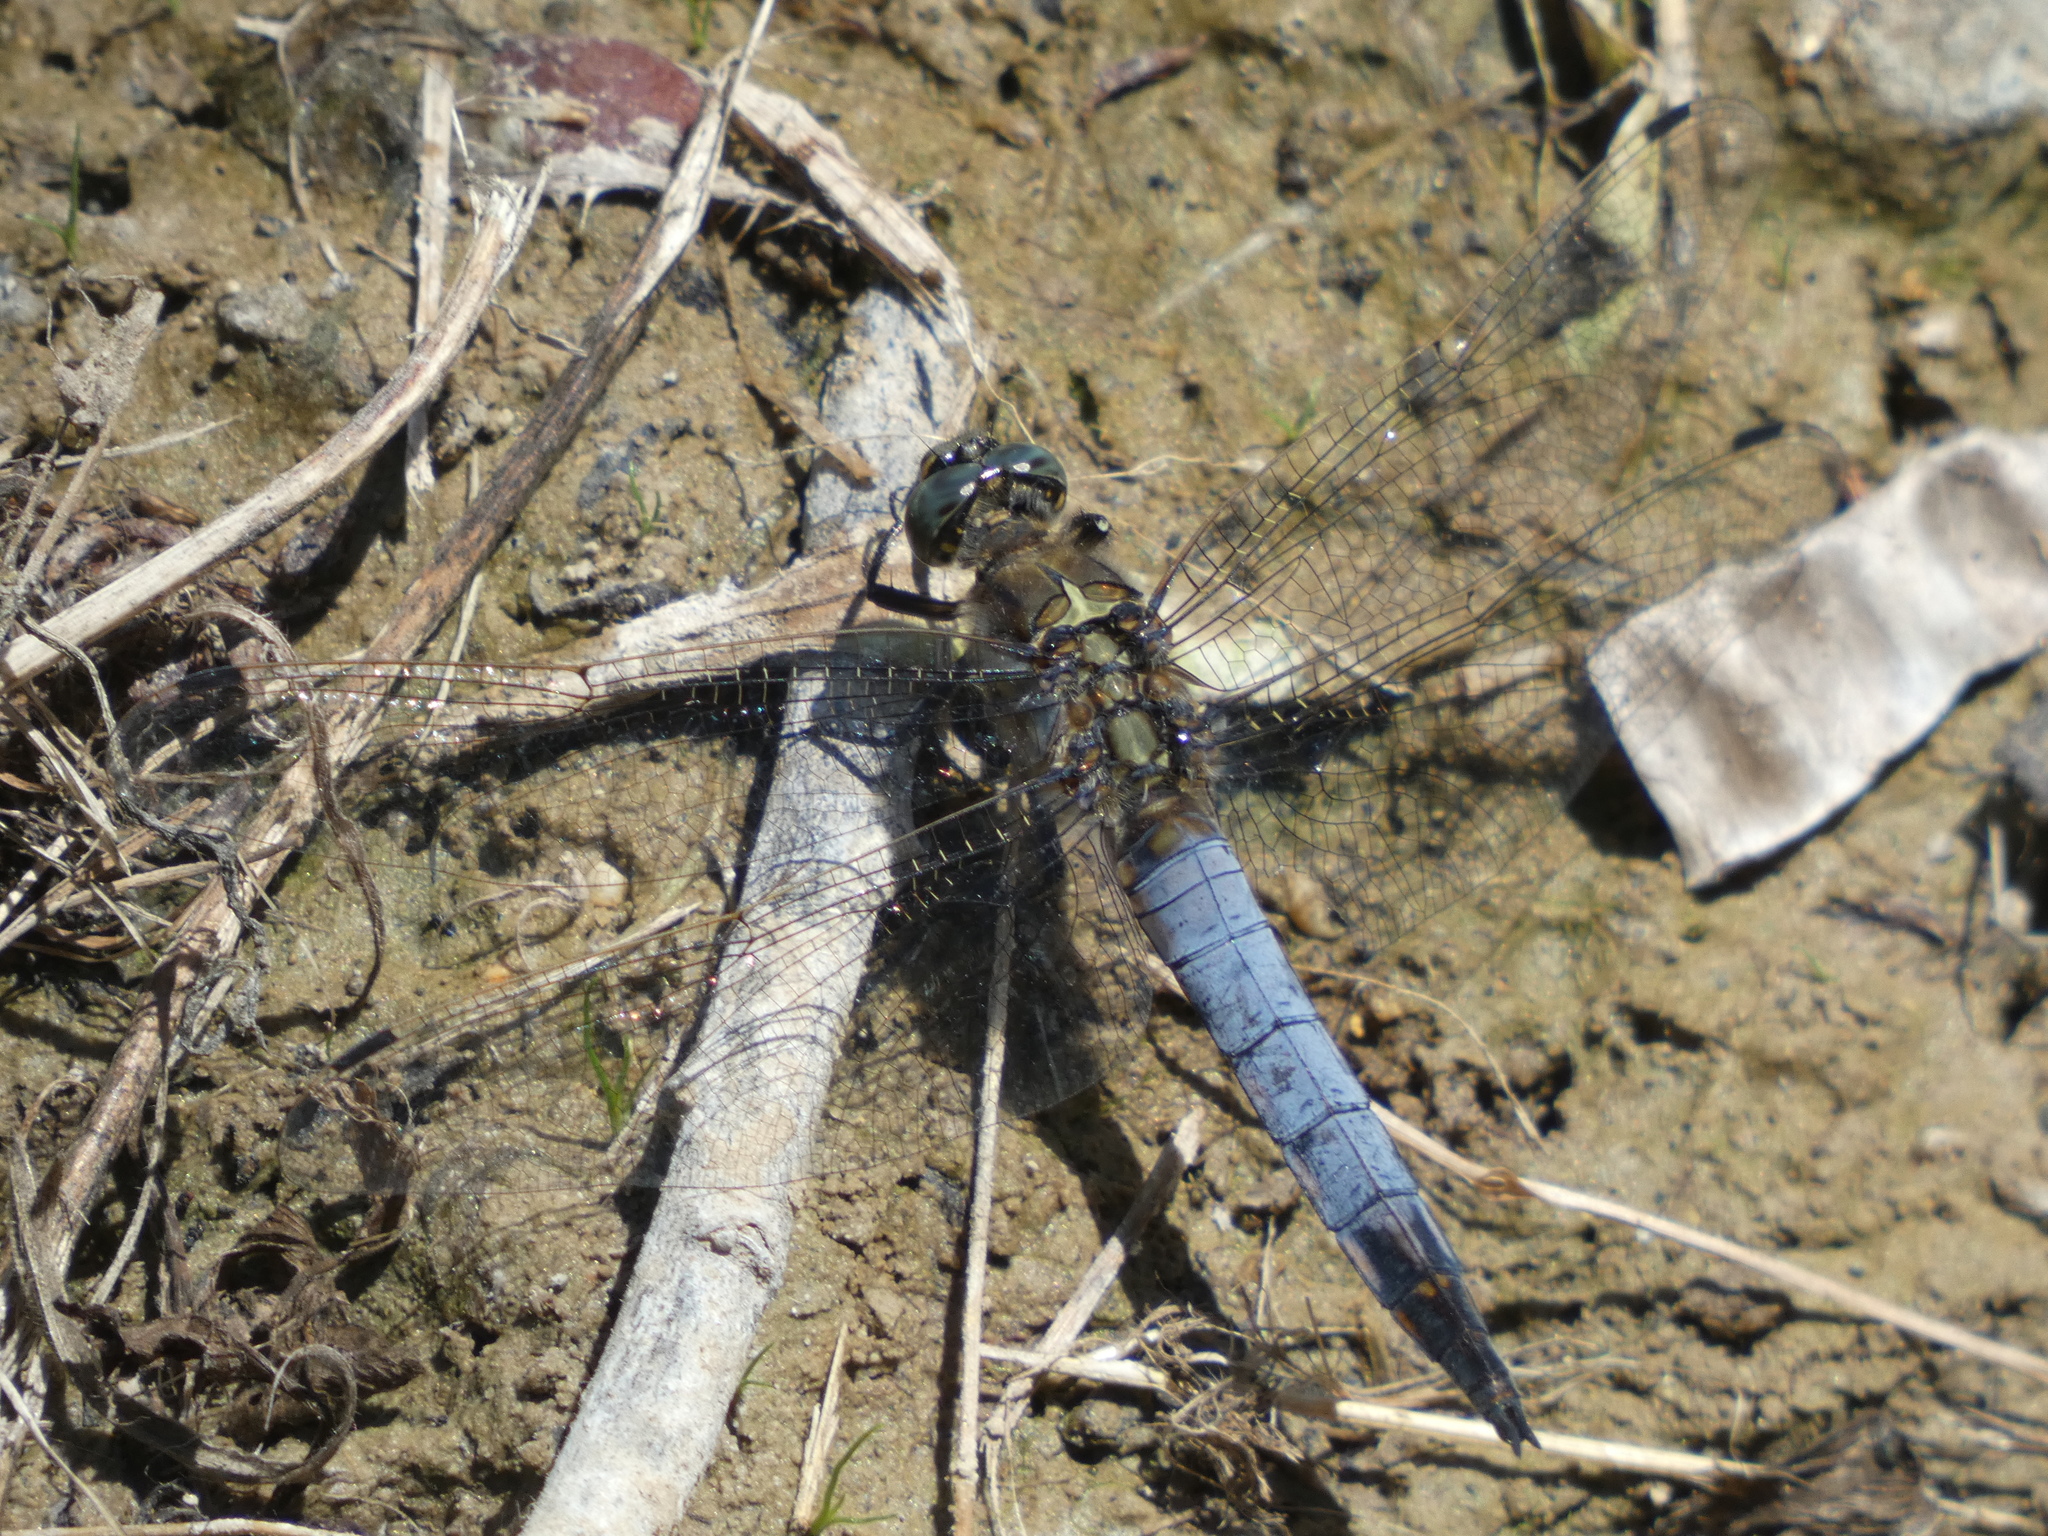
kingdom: Animalia
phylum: Arthropoda
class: Insecta
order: Odonata
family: Libellulidae
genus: Orthetrum
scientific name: Orthetrum cancellatum
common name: Black-tailed skimmer
